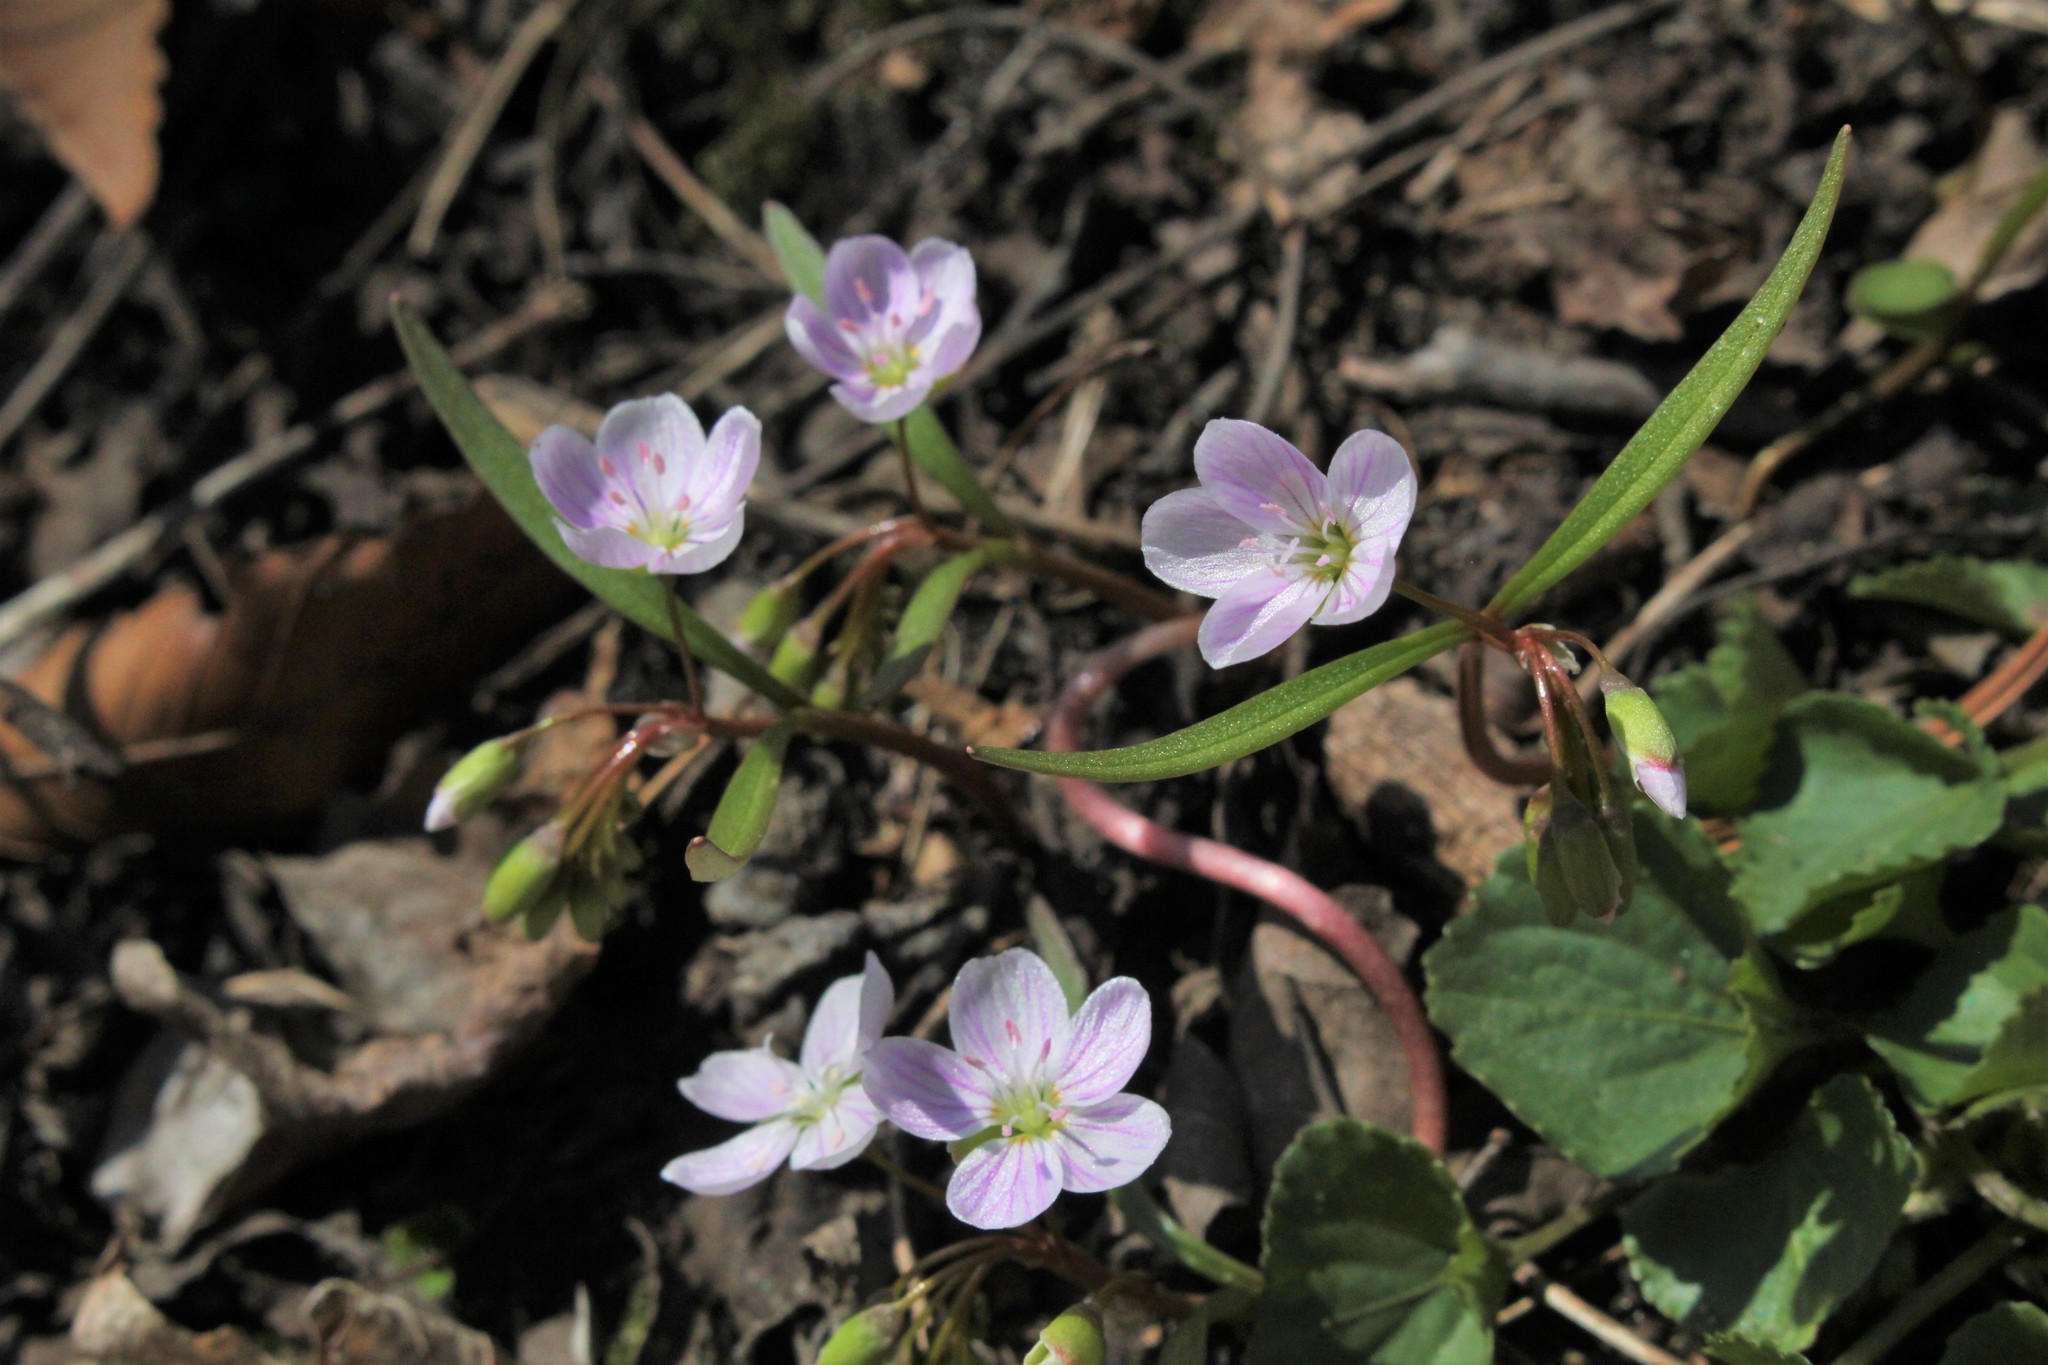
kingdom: Plantae
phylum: Tracheophyta
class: Magnoliopsida
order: Caryophyllales
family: Montiaceae
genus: Claytonia
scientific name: Claytonia virginica
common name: Virginia springbeauty
